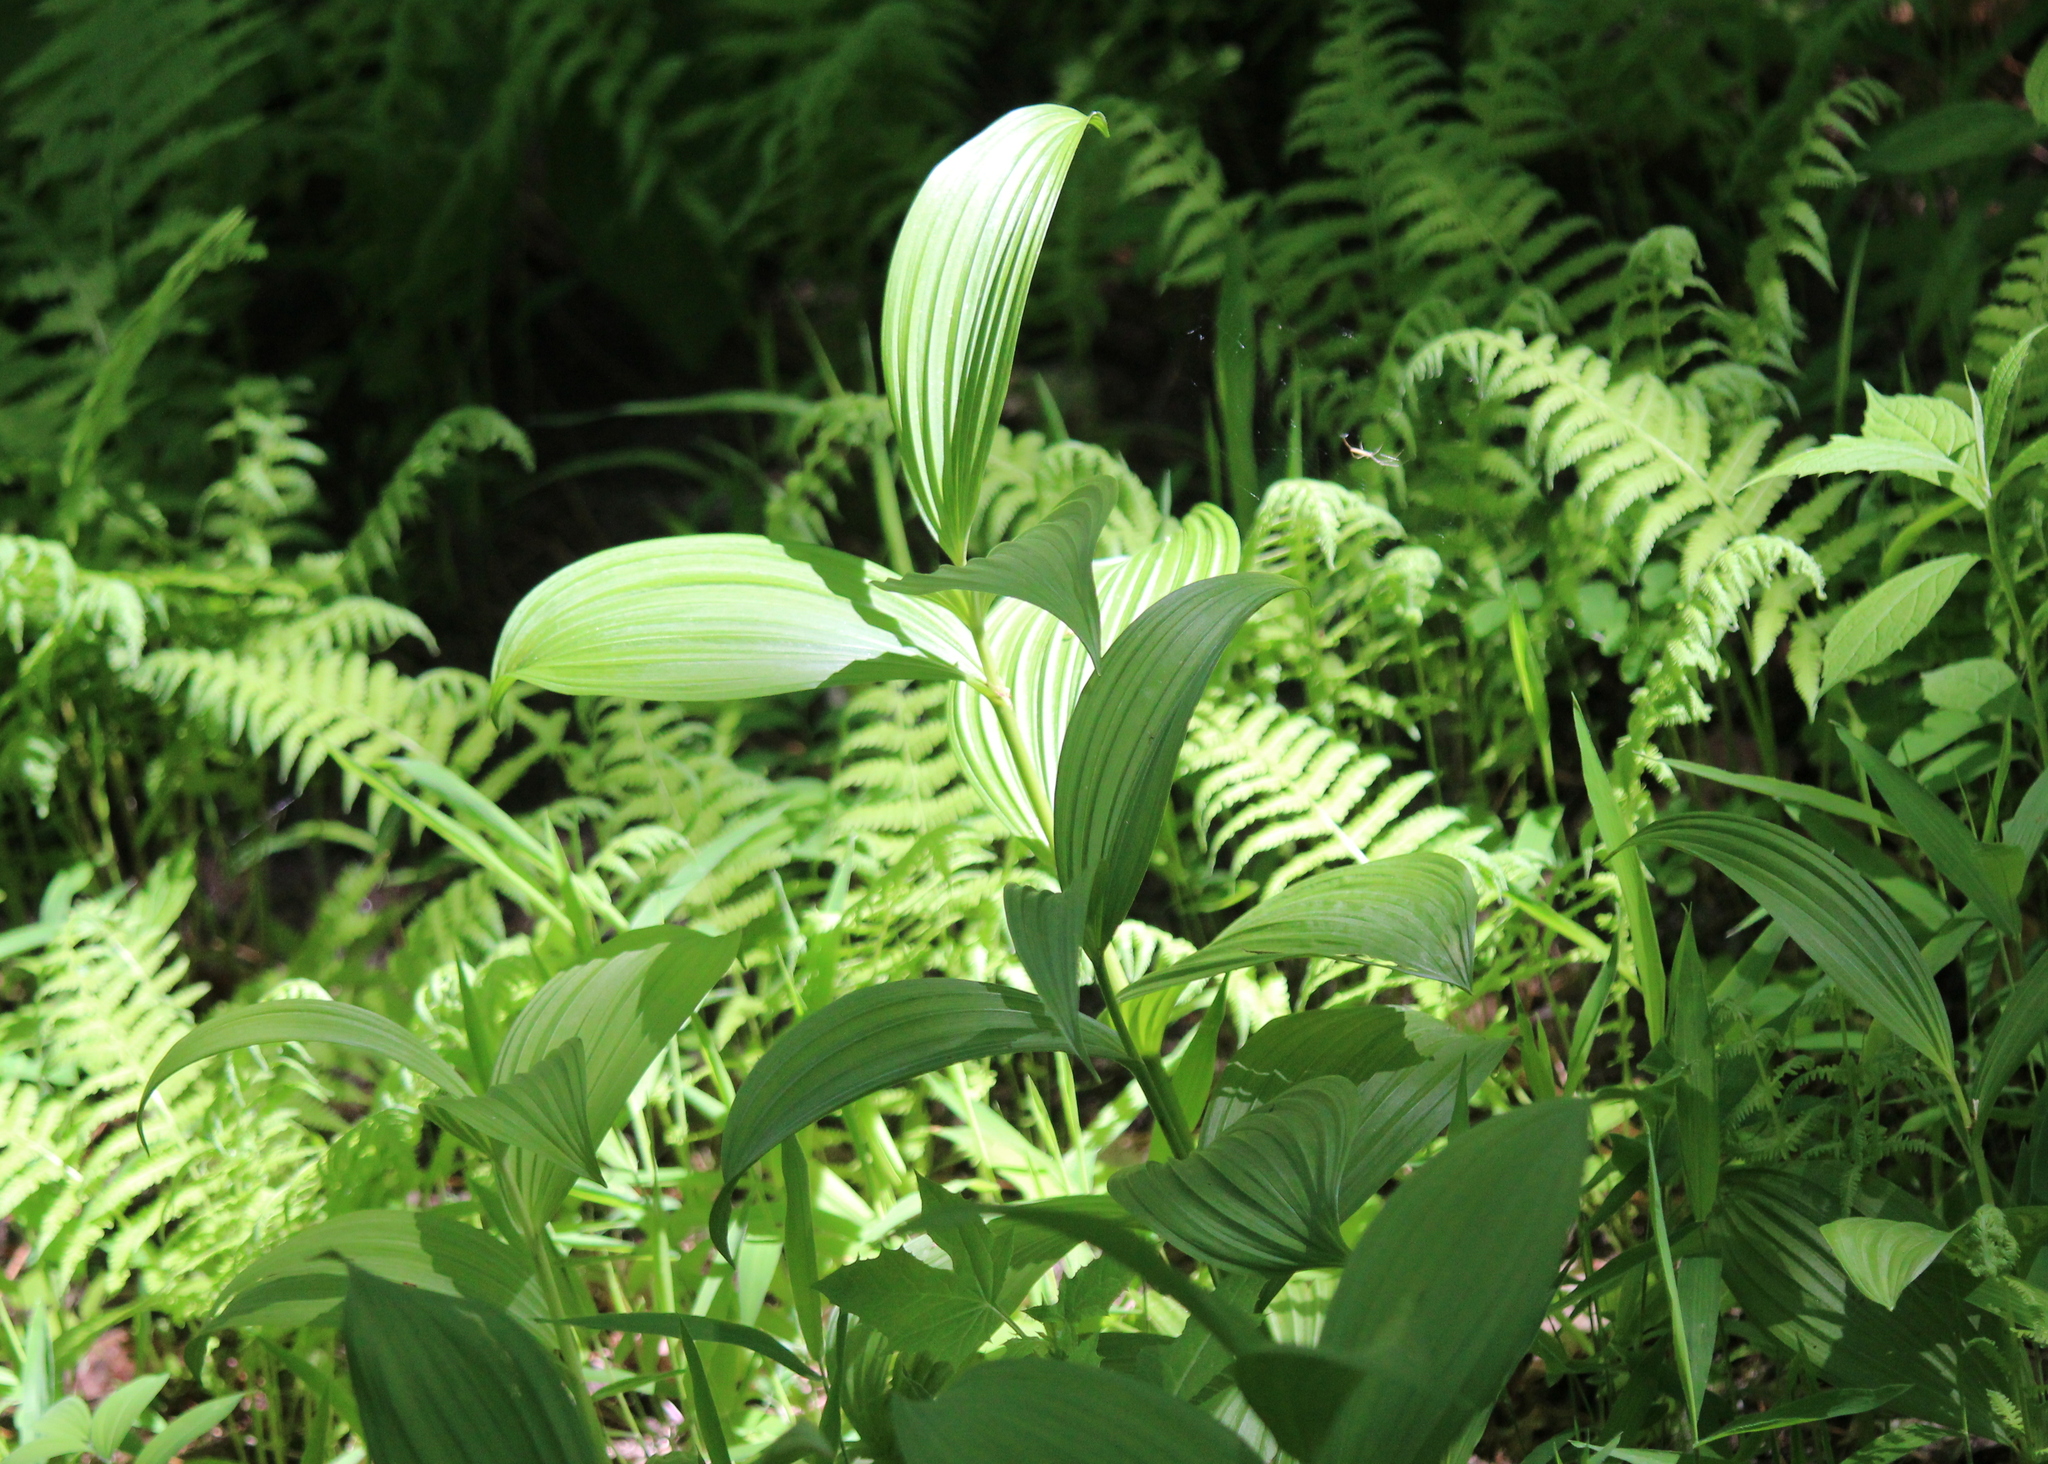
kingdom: Plantae
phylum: Tracheophyta
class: Liliopsida
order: Liliales
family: Melanthiaceae
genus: Veratrum
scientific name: Veratrum viride
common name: American false hellebore
